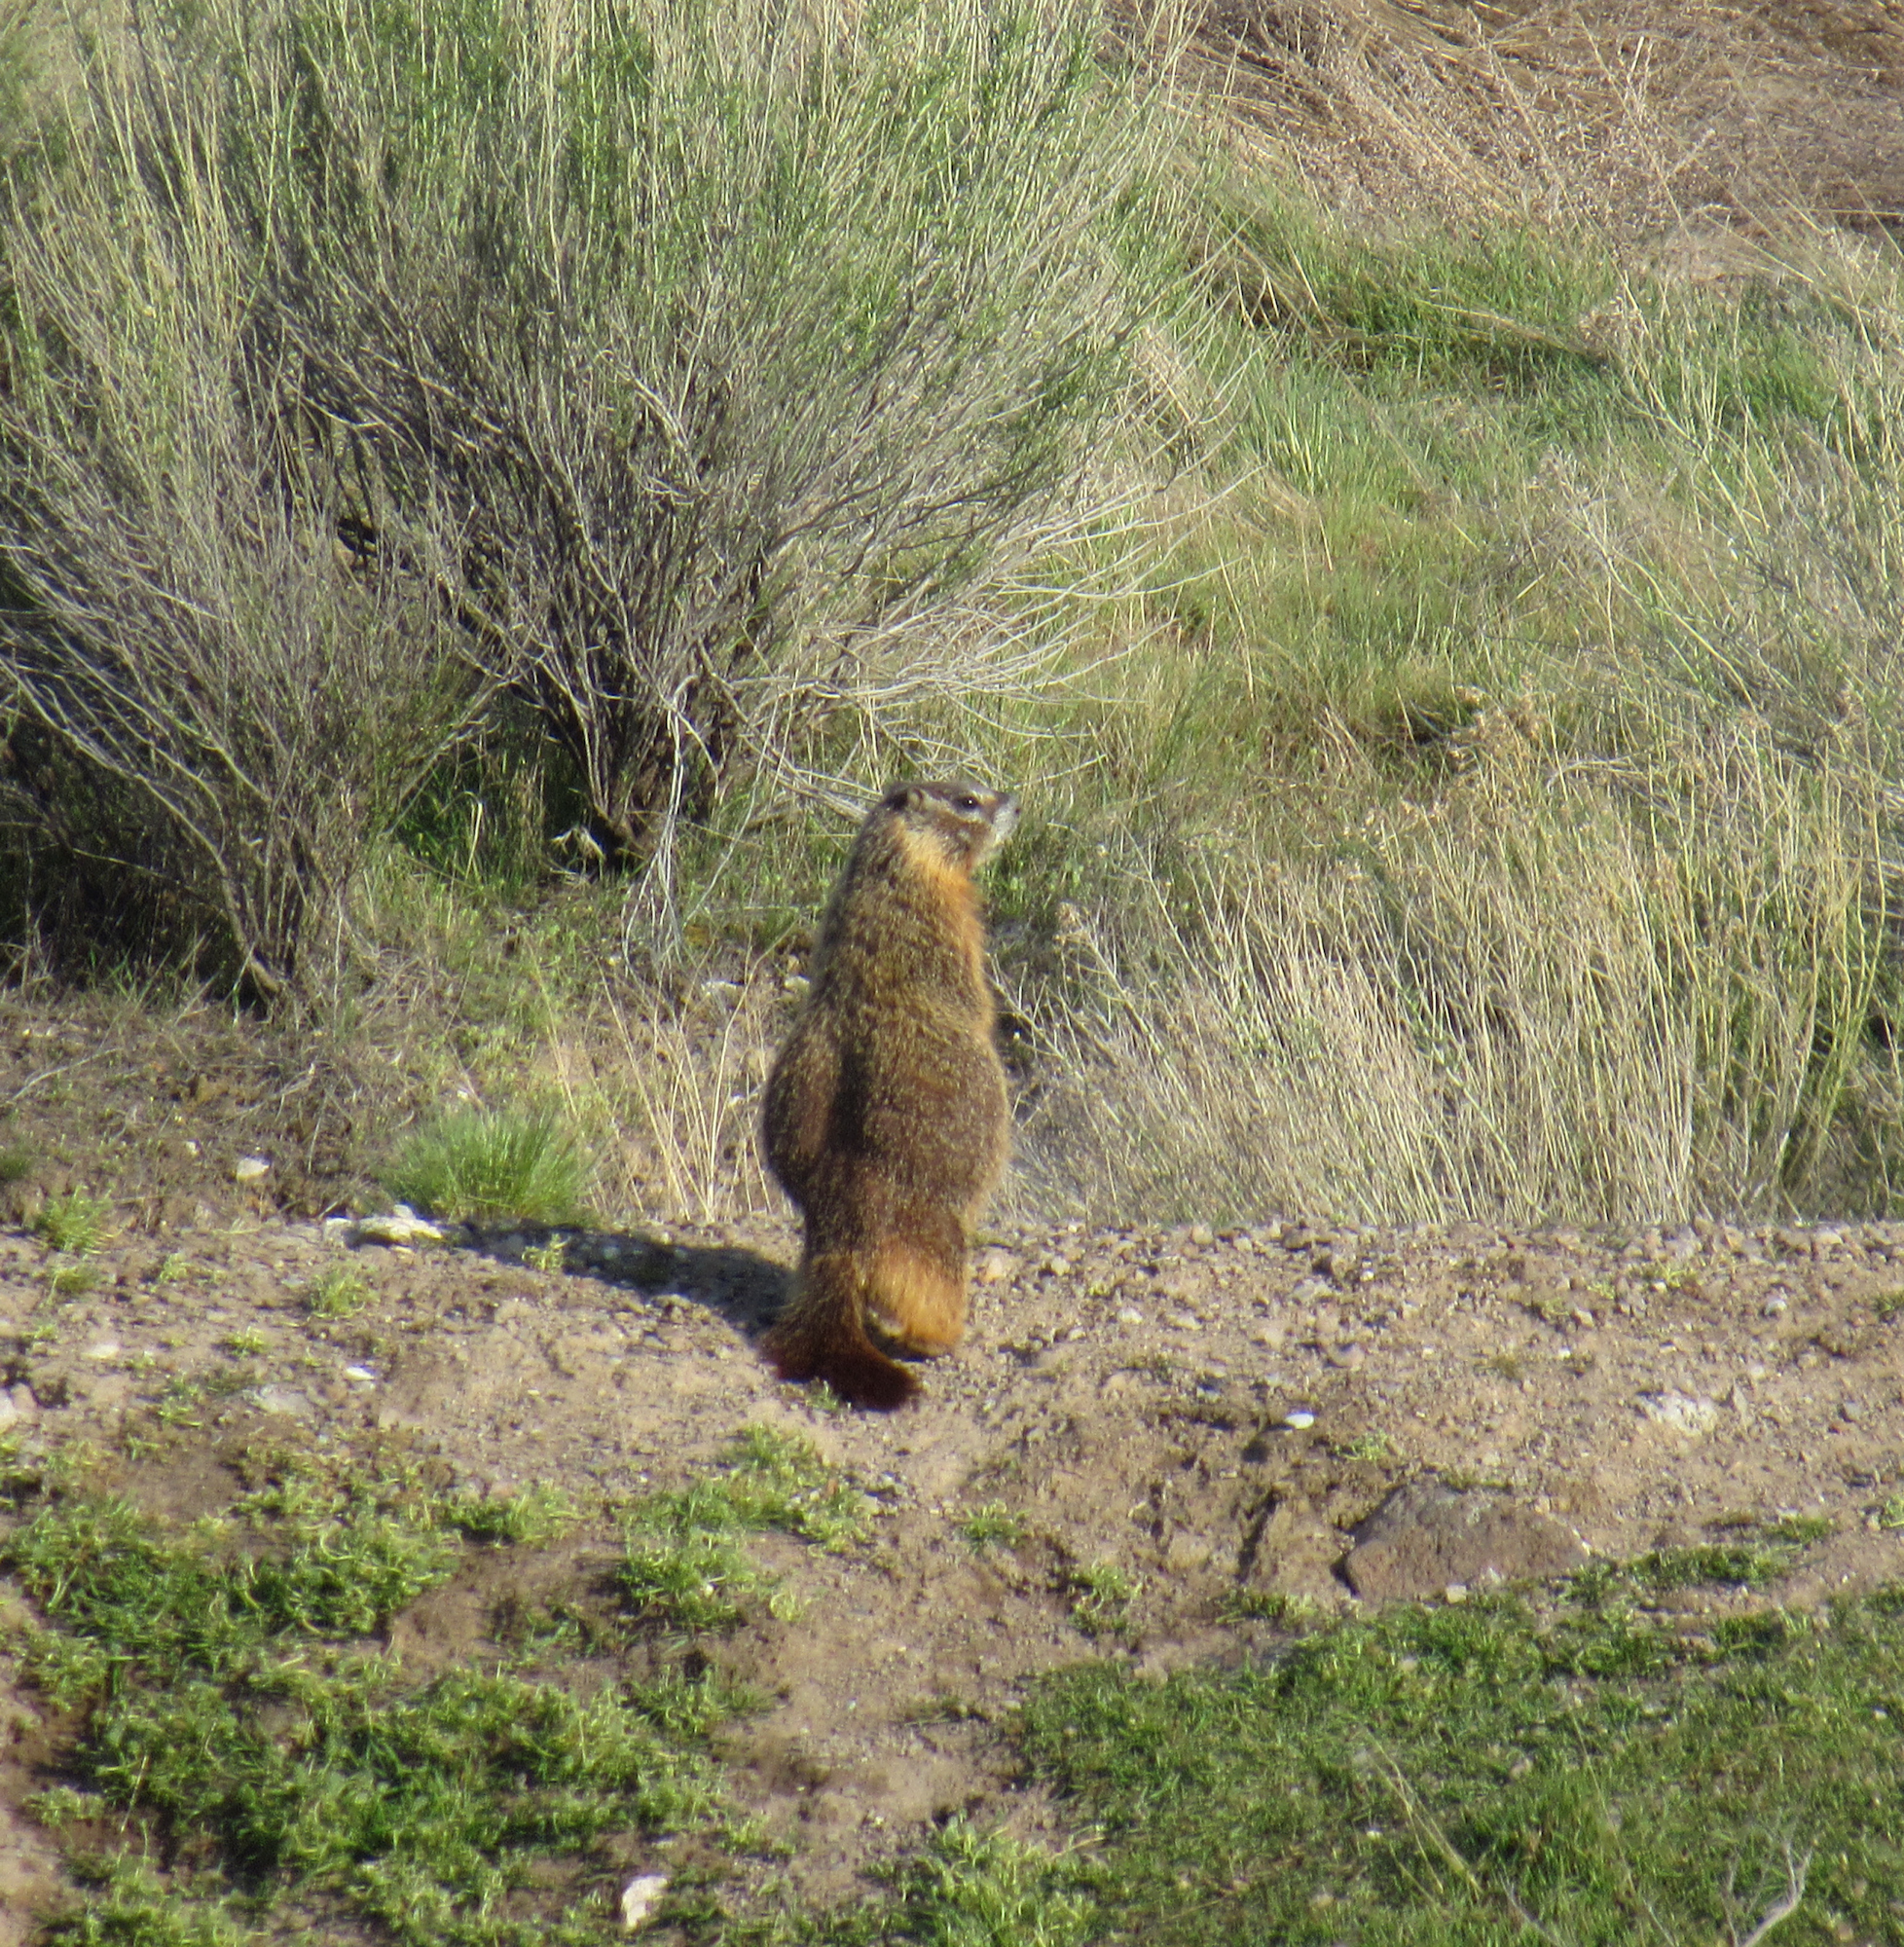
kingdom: Animalia
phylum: Chordata
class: Mammalia
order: Rodentia
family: Sciuridae
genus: Marmota
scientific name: Marmota flaviventris
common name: Yellow-bellied marmot
